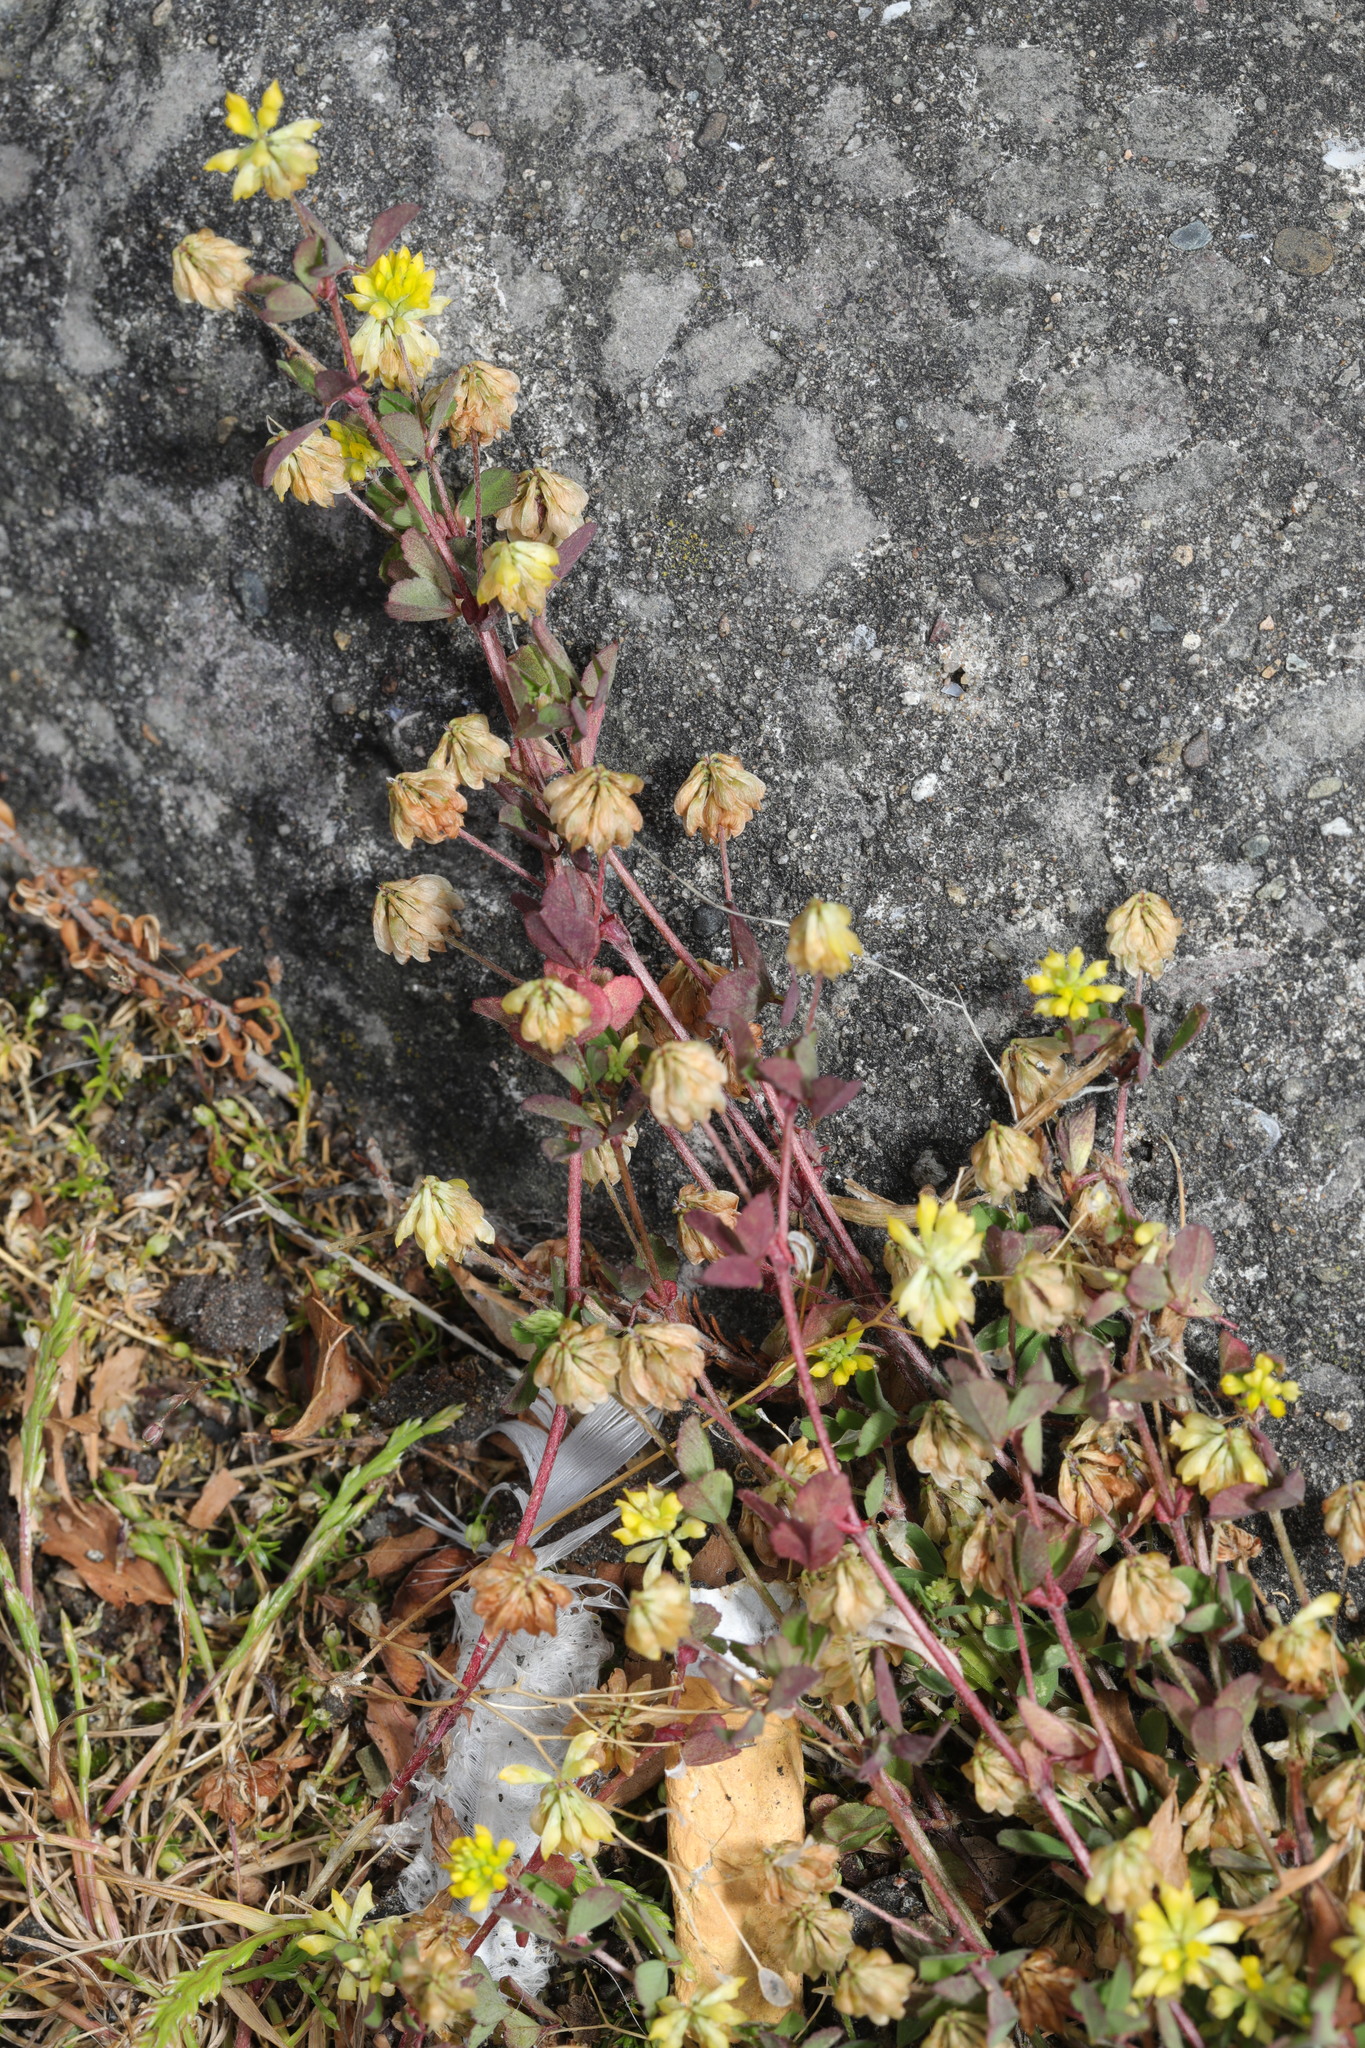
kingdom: Plantae
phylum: Tracheophyta
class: Magnoliopsida
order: Fabales
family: Fabaceae
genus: Trifolium
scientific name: Trifolium dubium
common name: Suckling clover
